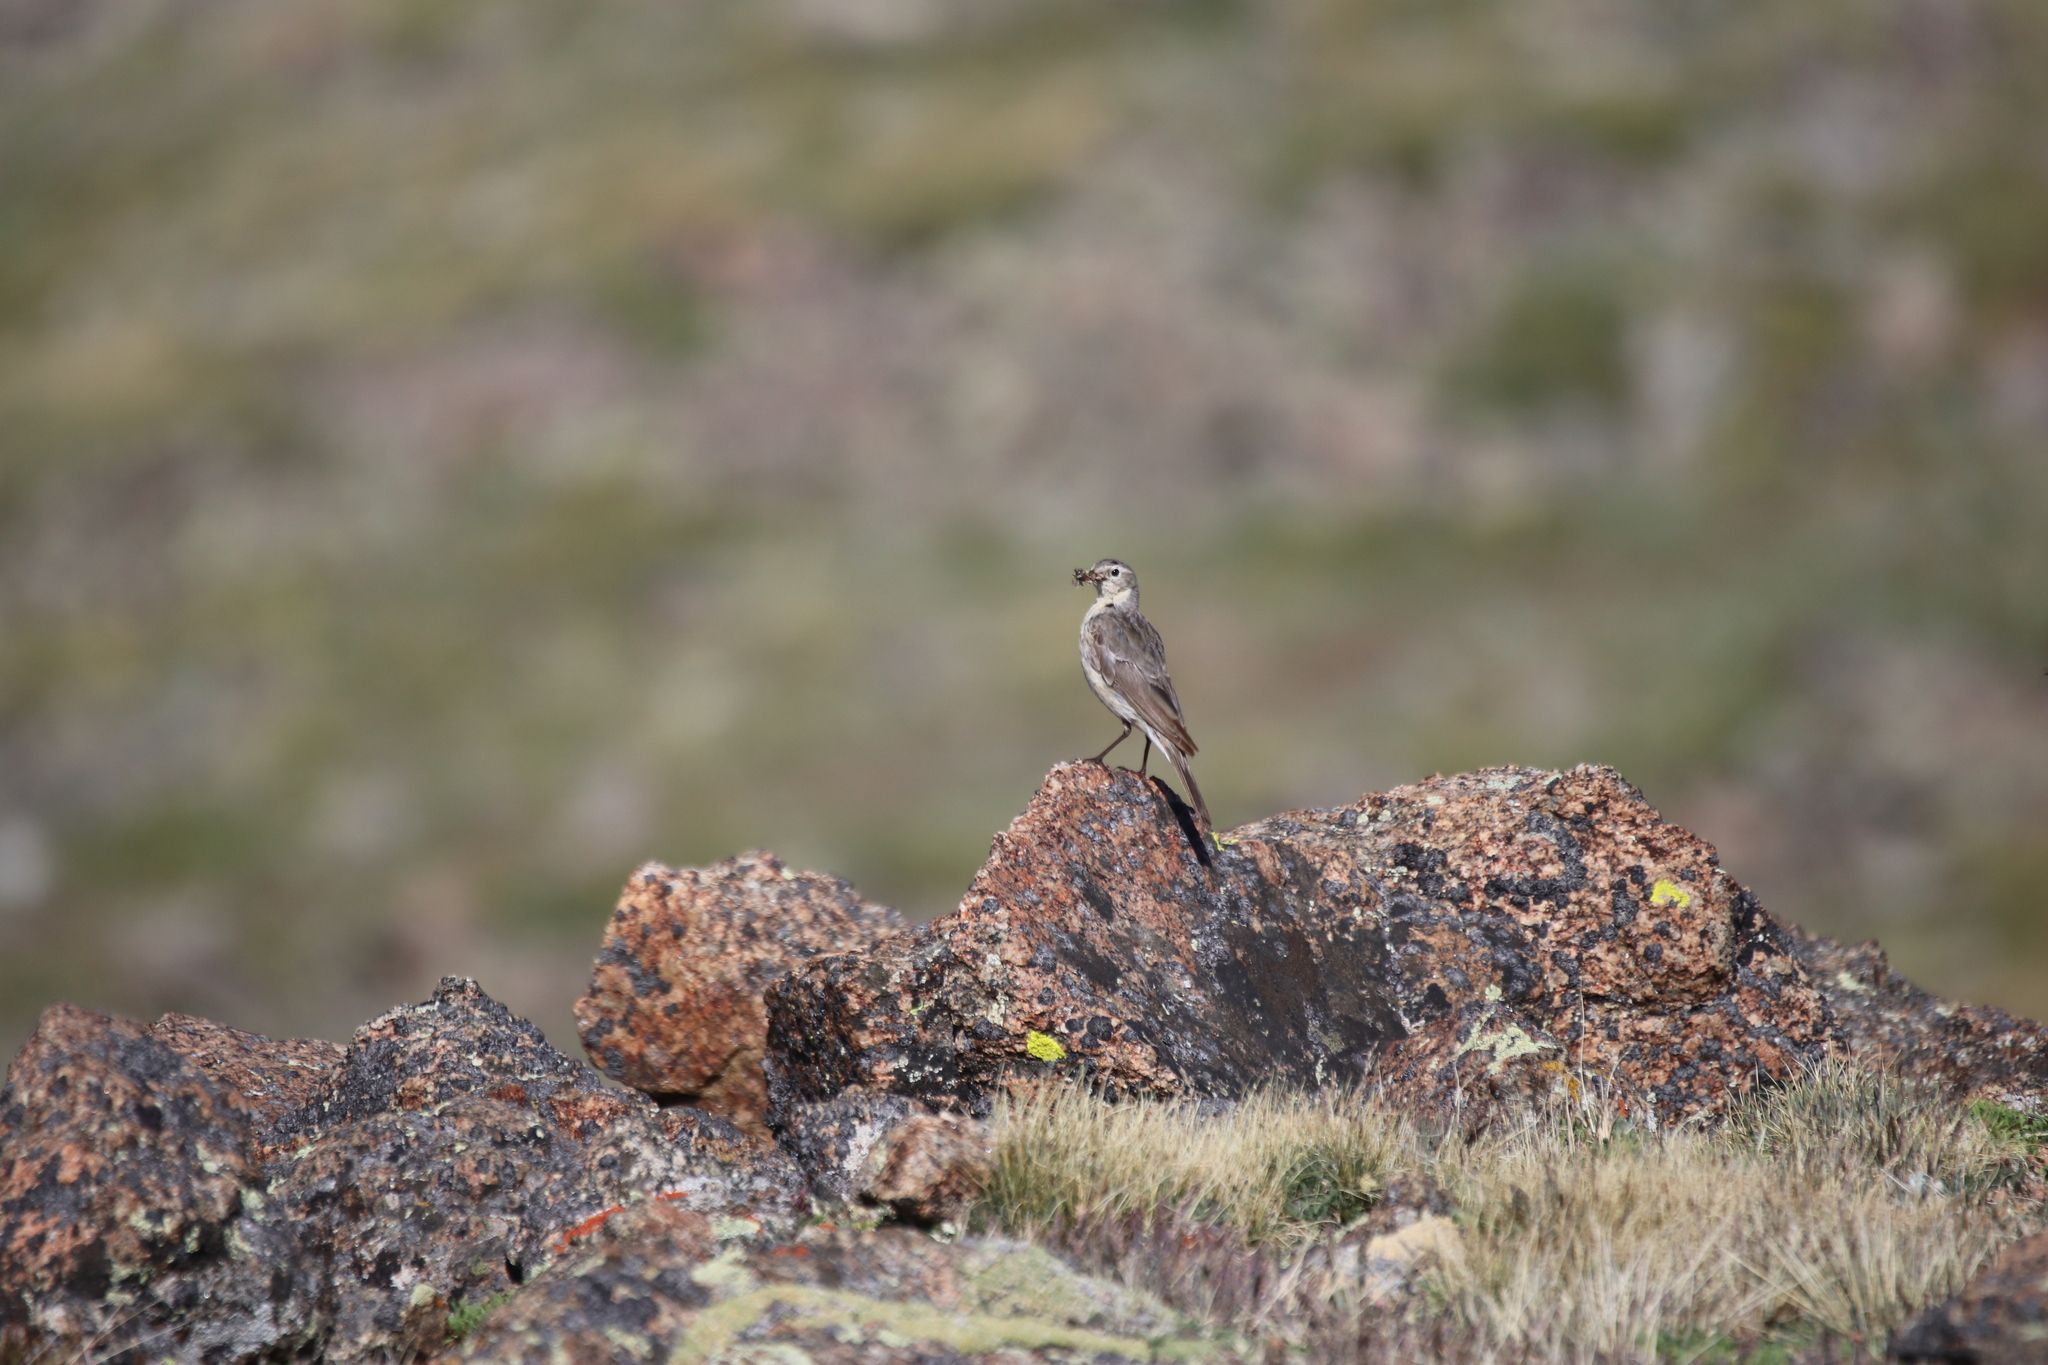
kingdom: Animalia
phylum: Chordata
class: Aves
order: Passeriformes
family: Motacillidae
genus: Anthus
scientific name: Anthus rubescens
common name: Buff-bellied pipit
